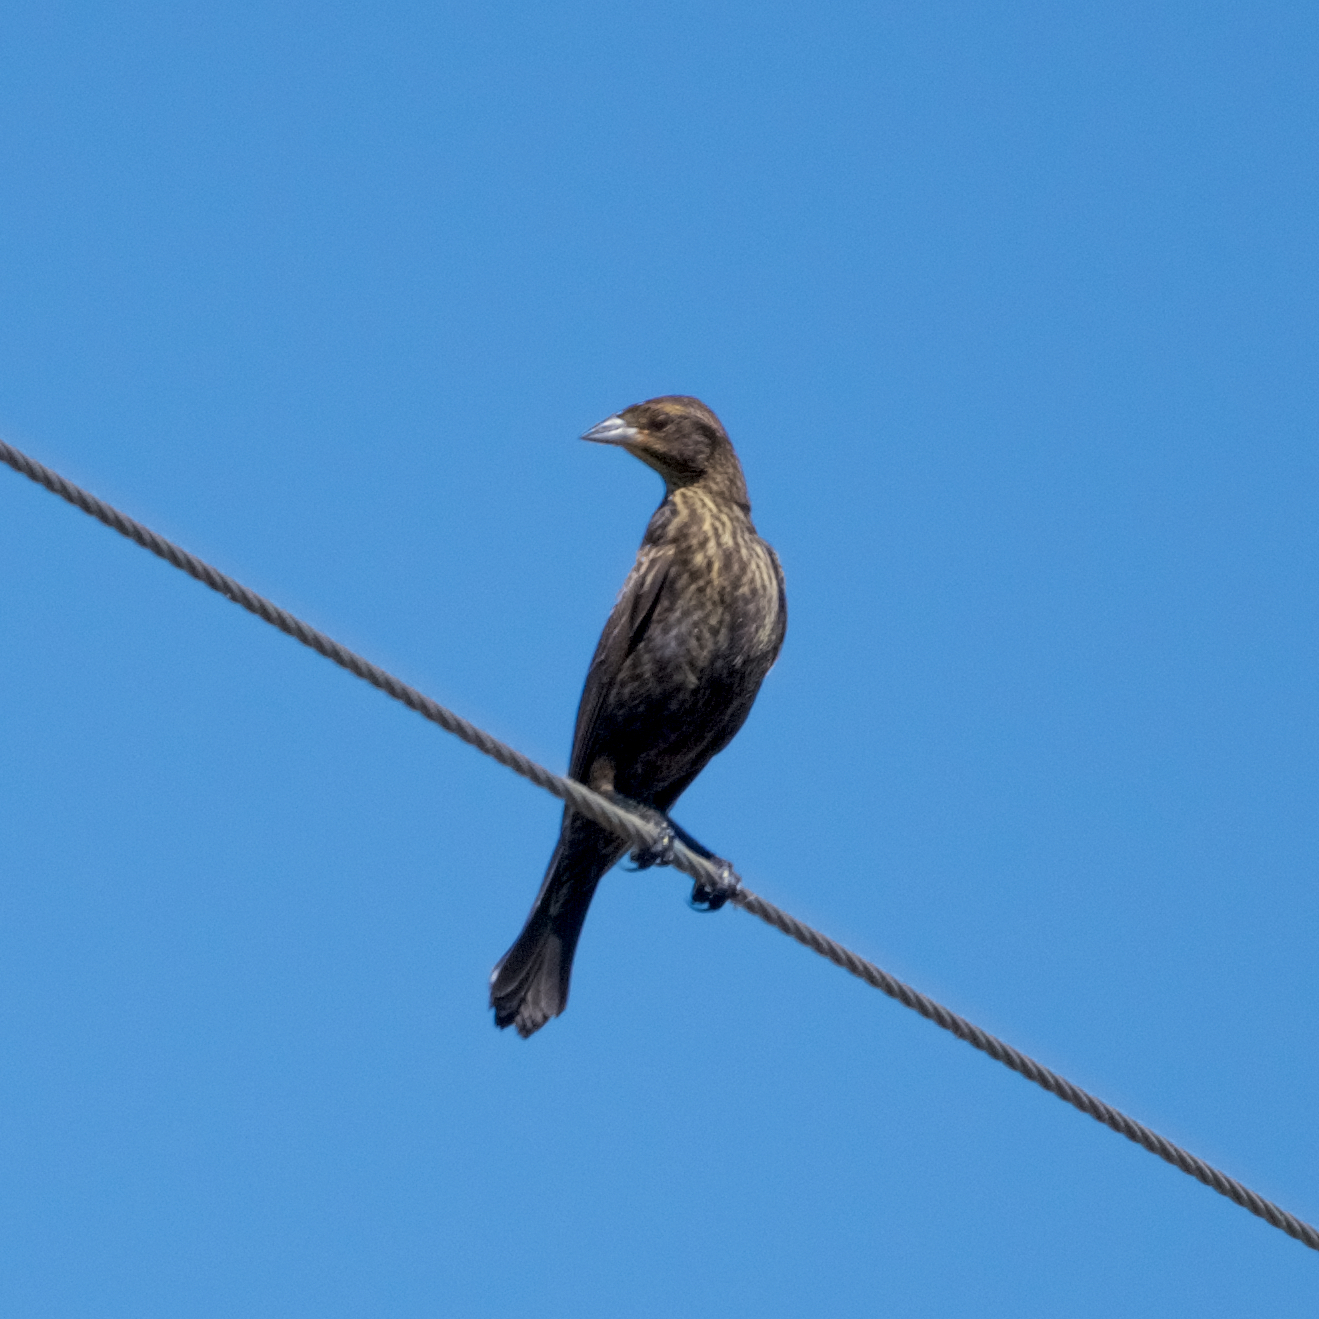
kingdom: Animalia
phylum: Chordata
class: Aves
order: Passeriformes
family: Icteridae
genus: Agelaius
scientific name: Agelaius phoeniceus
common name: Red-winged blackbird
